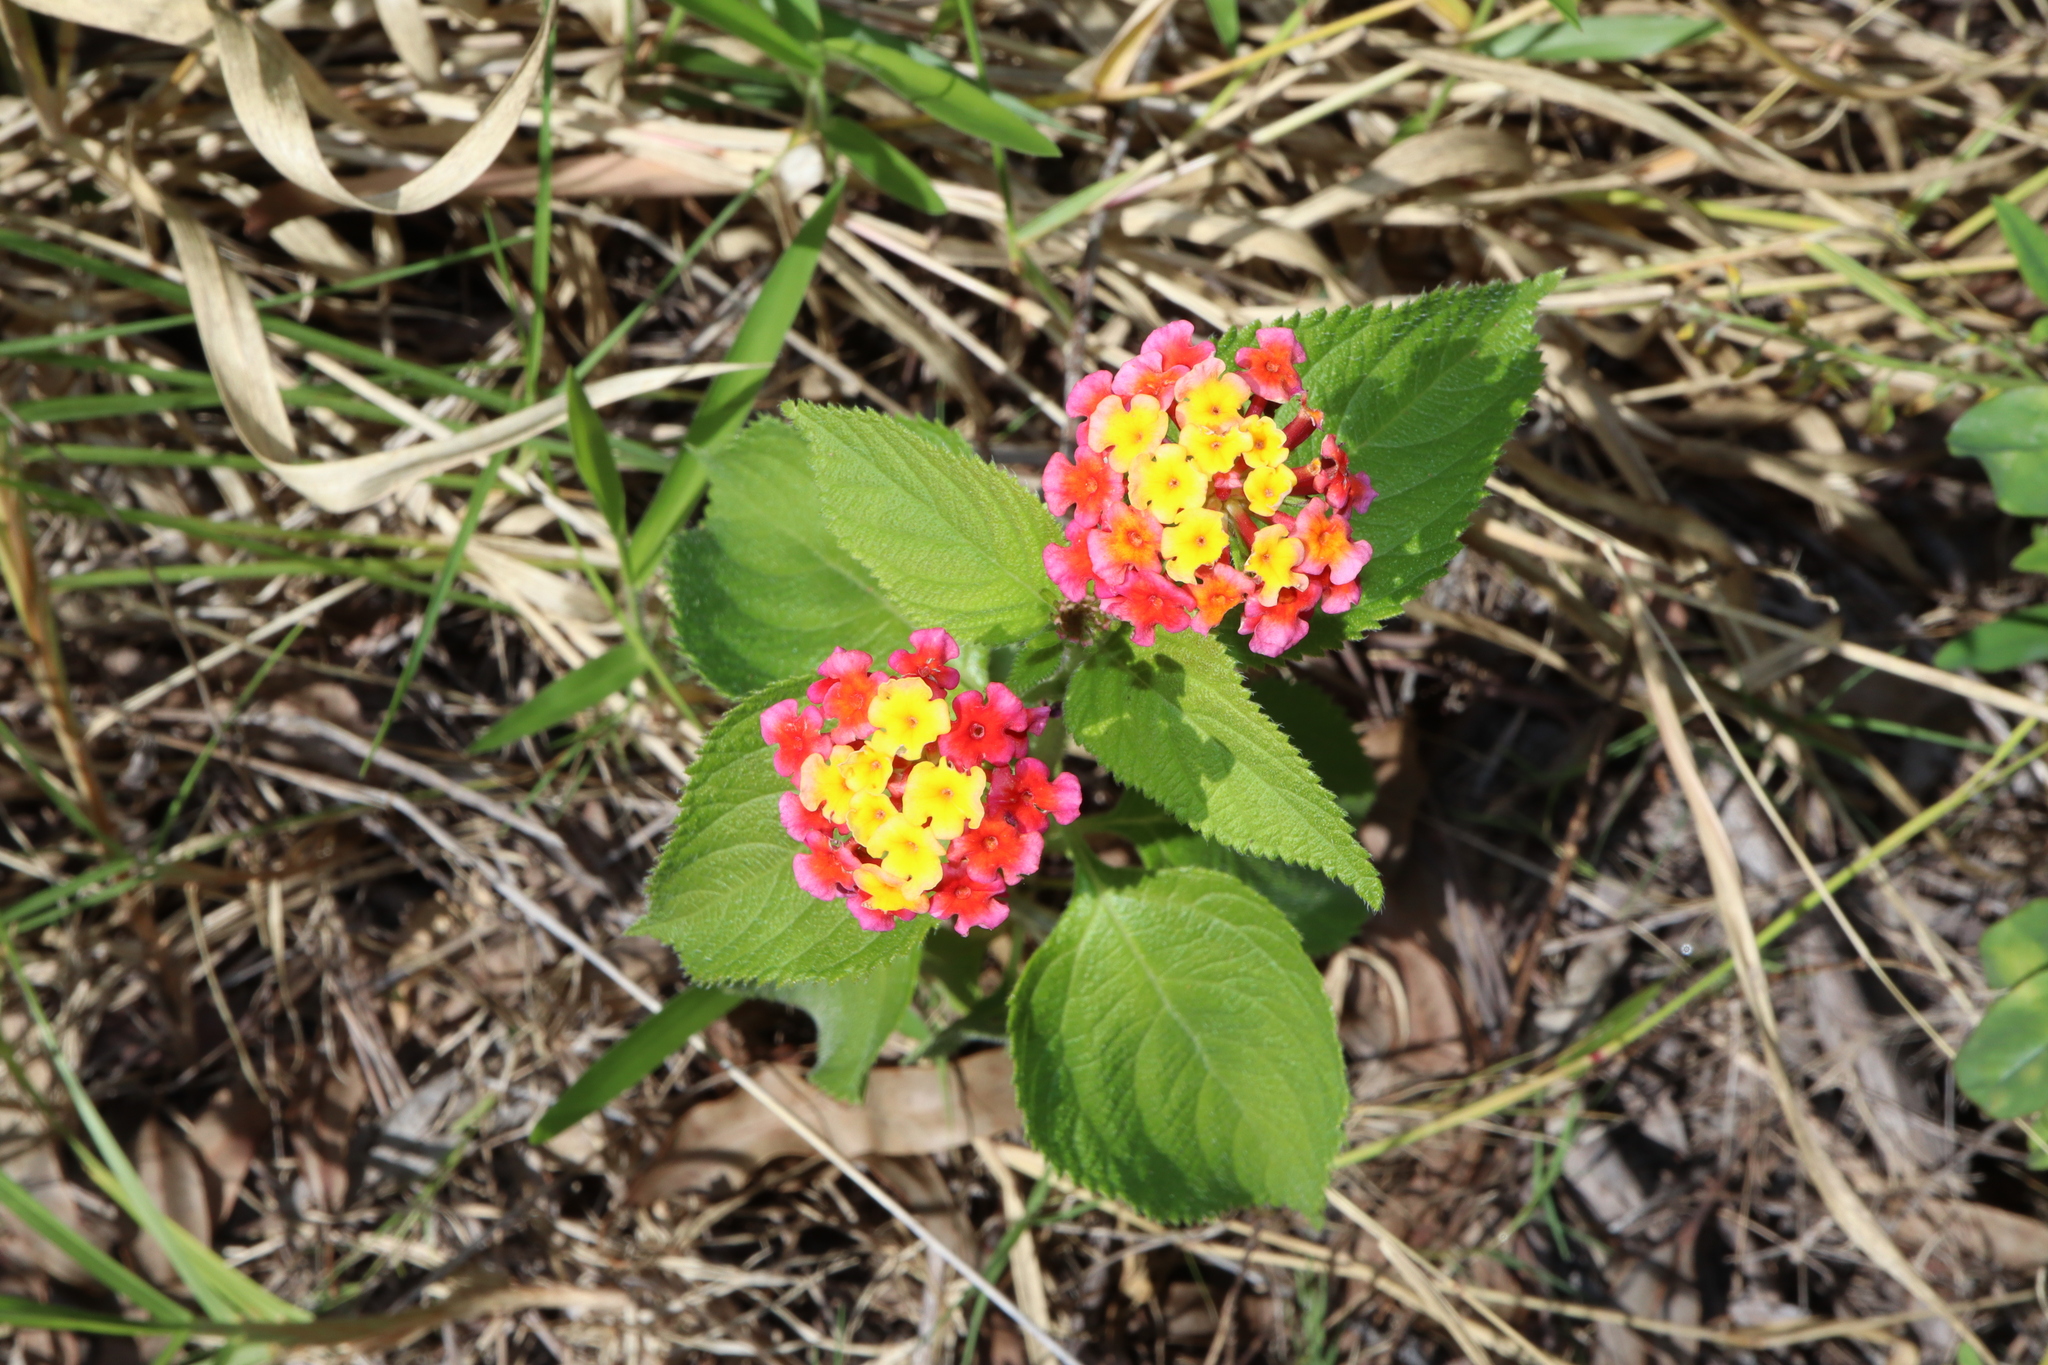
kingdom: Plantae
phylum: Tracheophyta
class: Magnoliopsida
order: Lamiales
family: Verbenaceae
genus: Lantana
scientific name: Lantana camara
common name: Lantana
